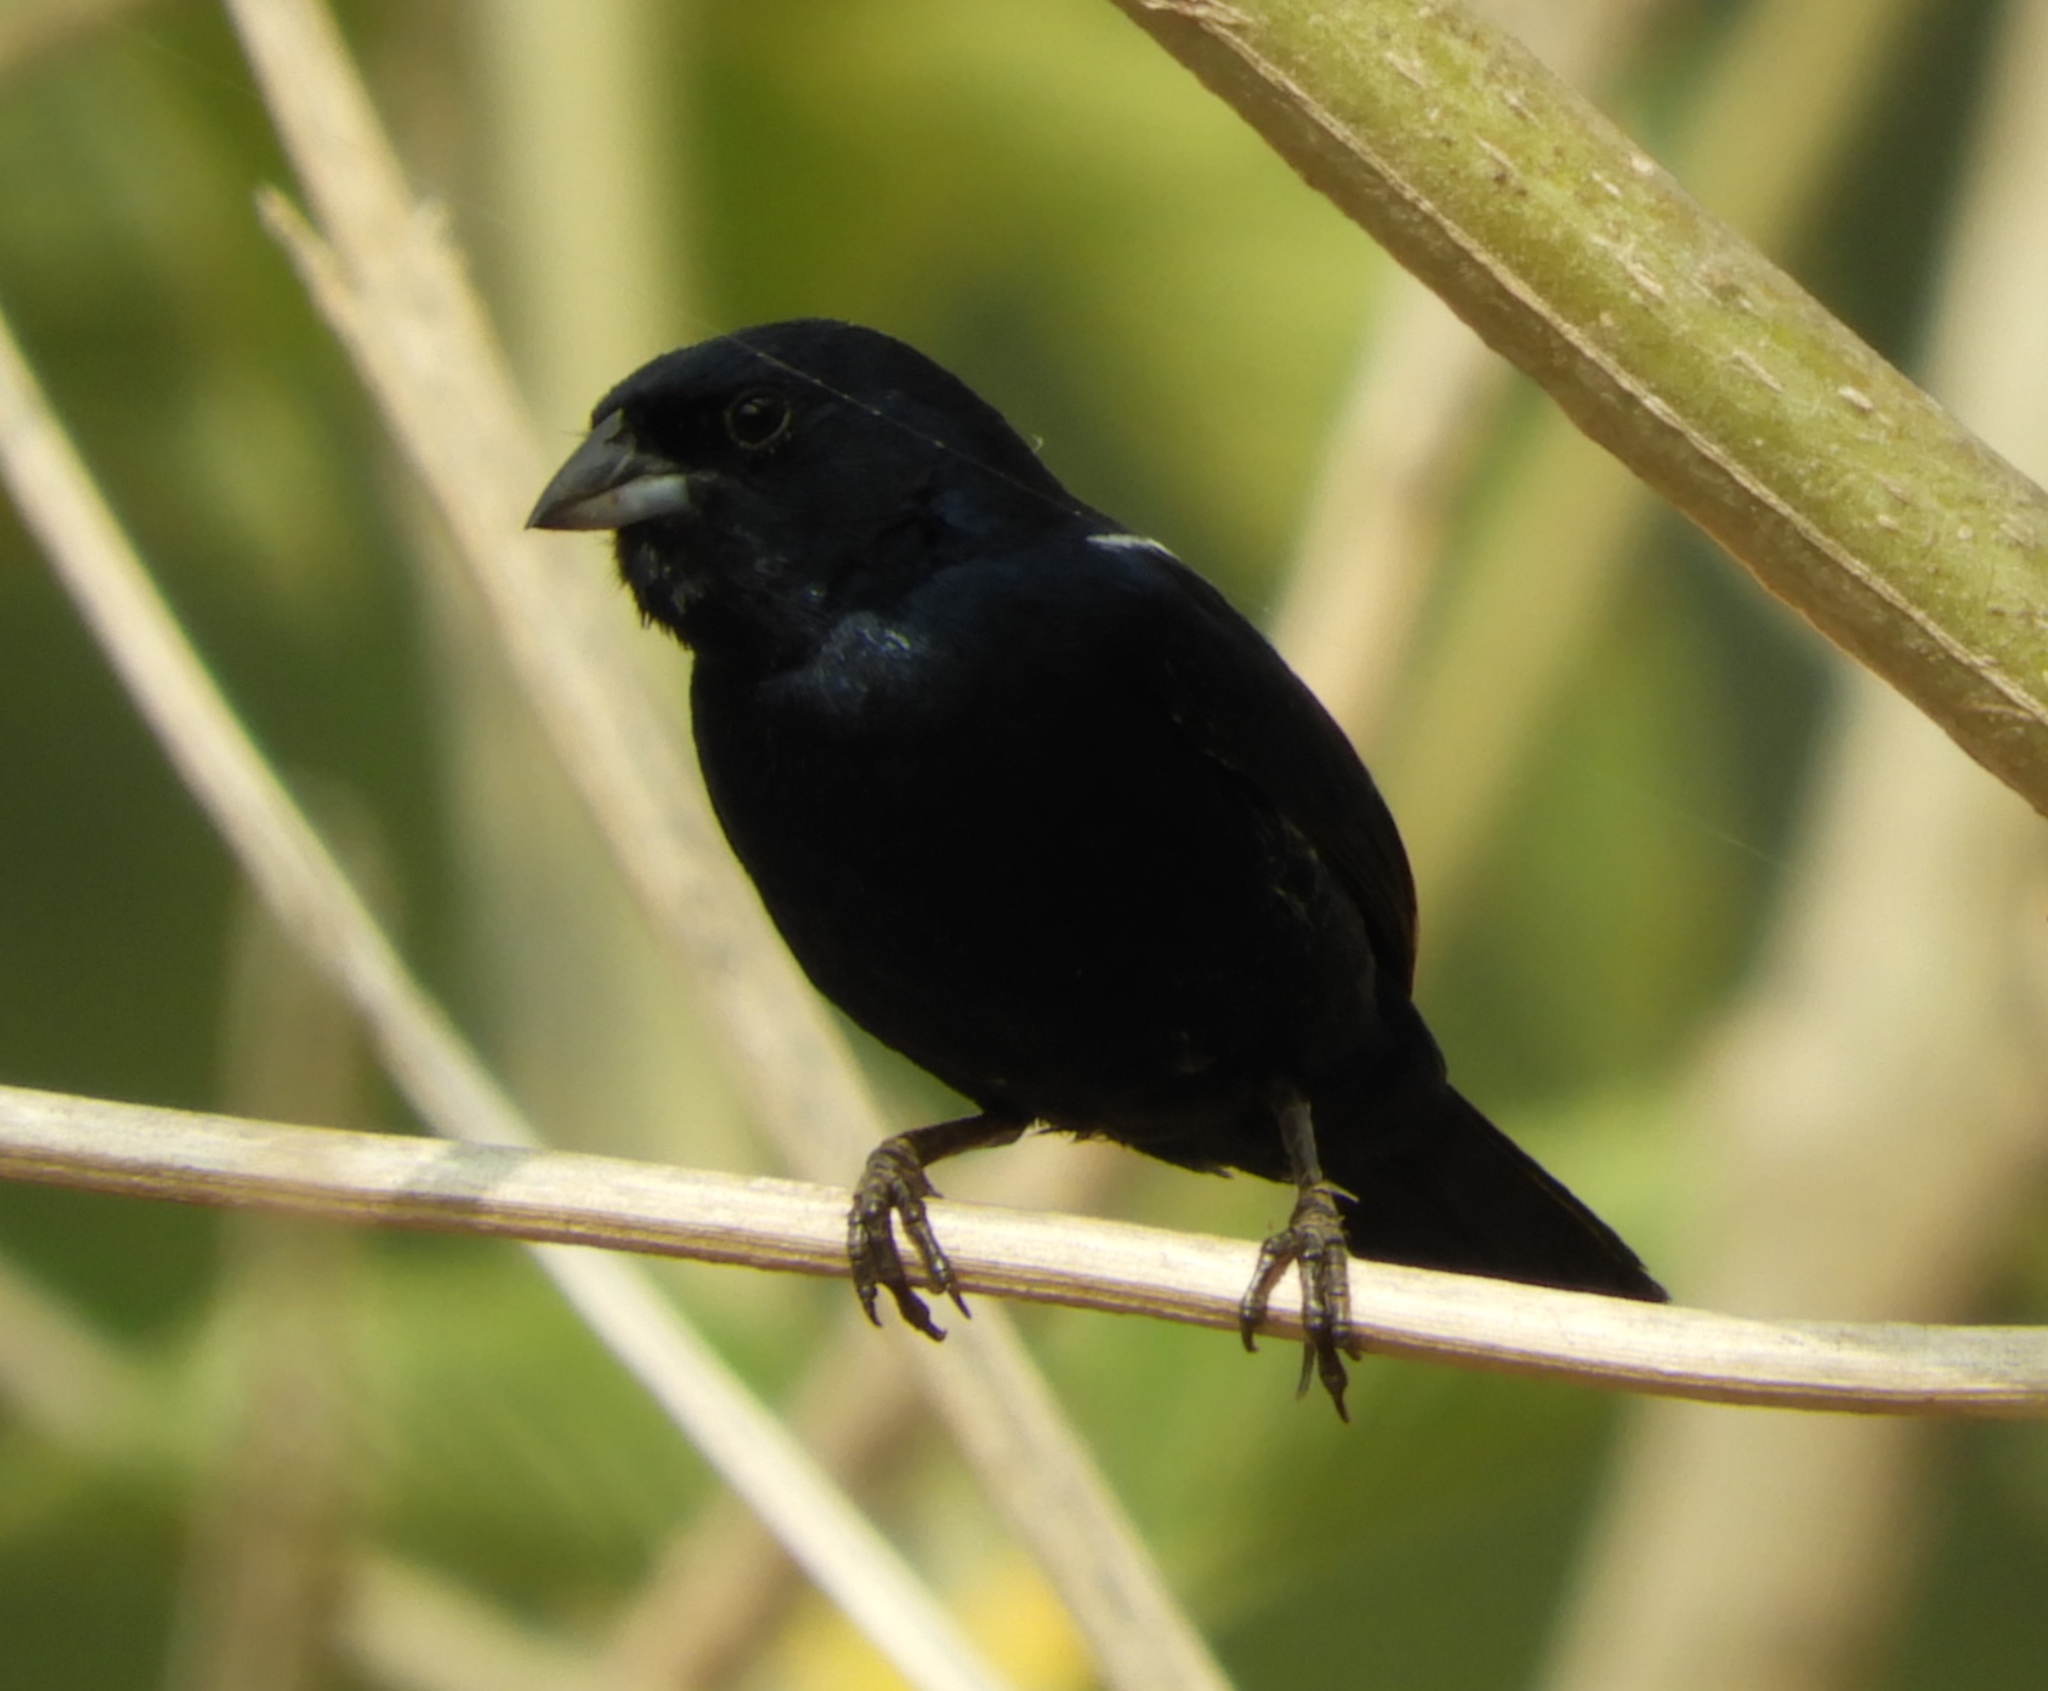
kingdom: Animalia
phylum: Chordata
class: Aves
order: Passeriformes
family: Thraupidae
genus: Volatinia
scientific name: Volatinia jacarina
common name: Blue-black grassquit
